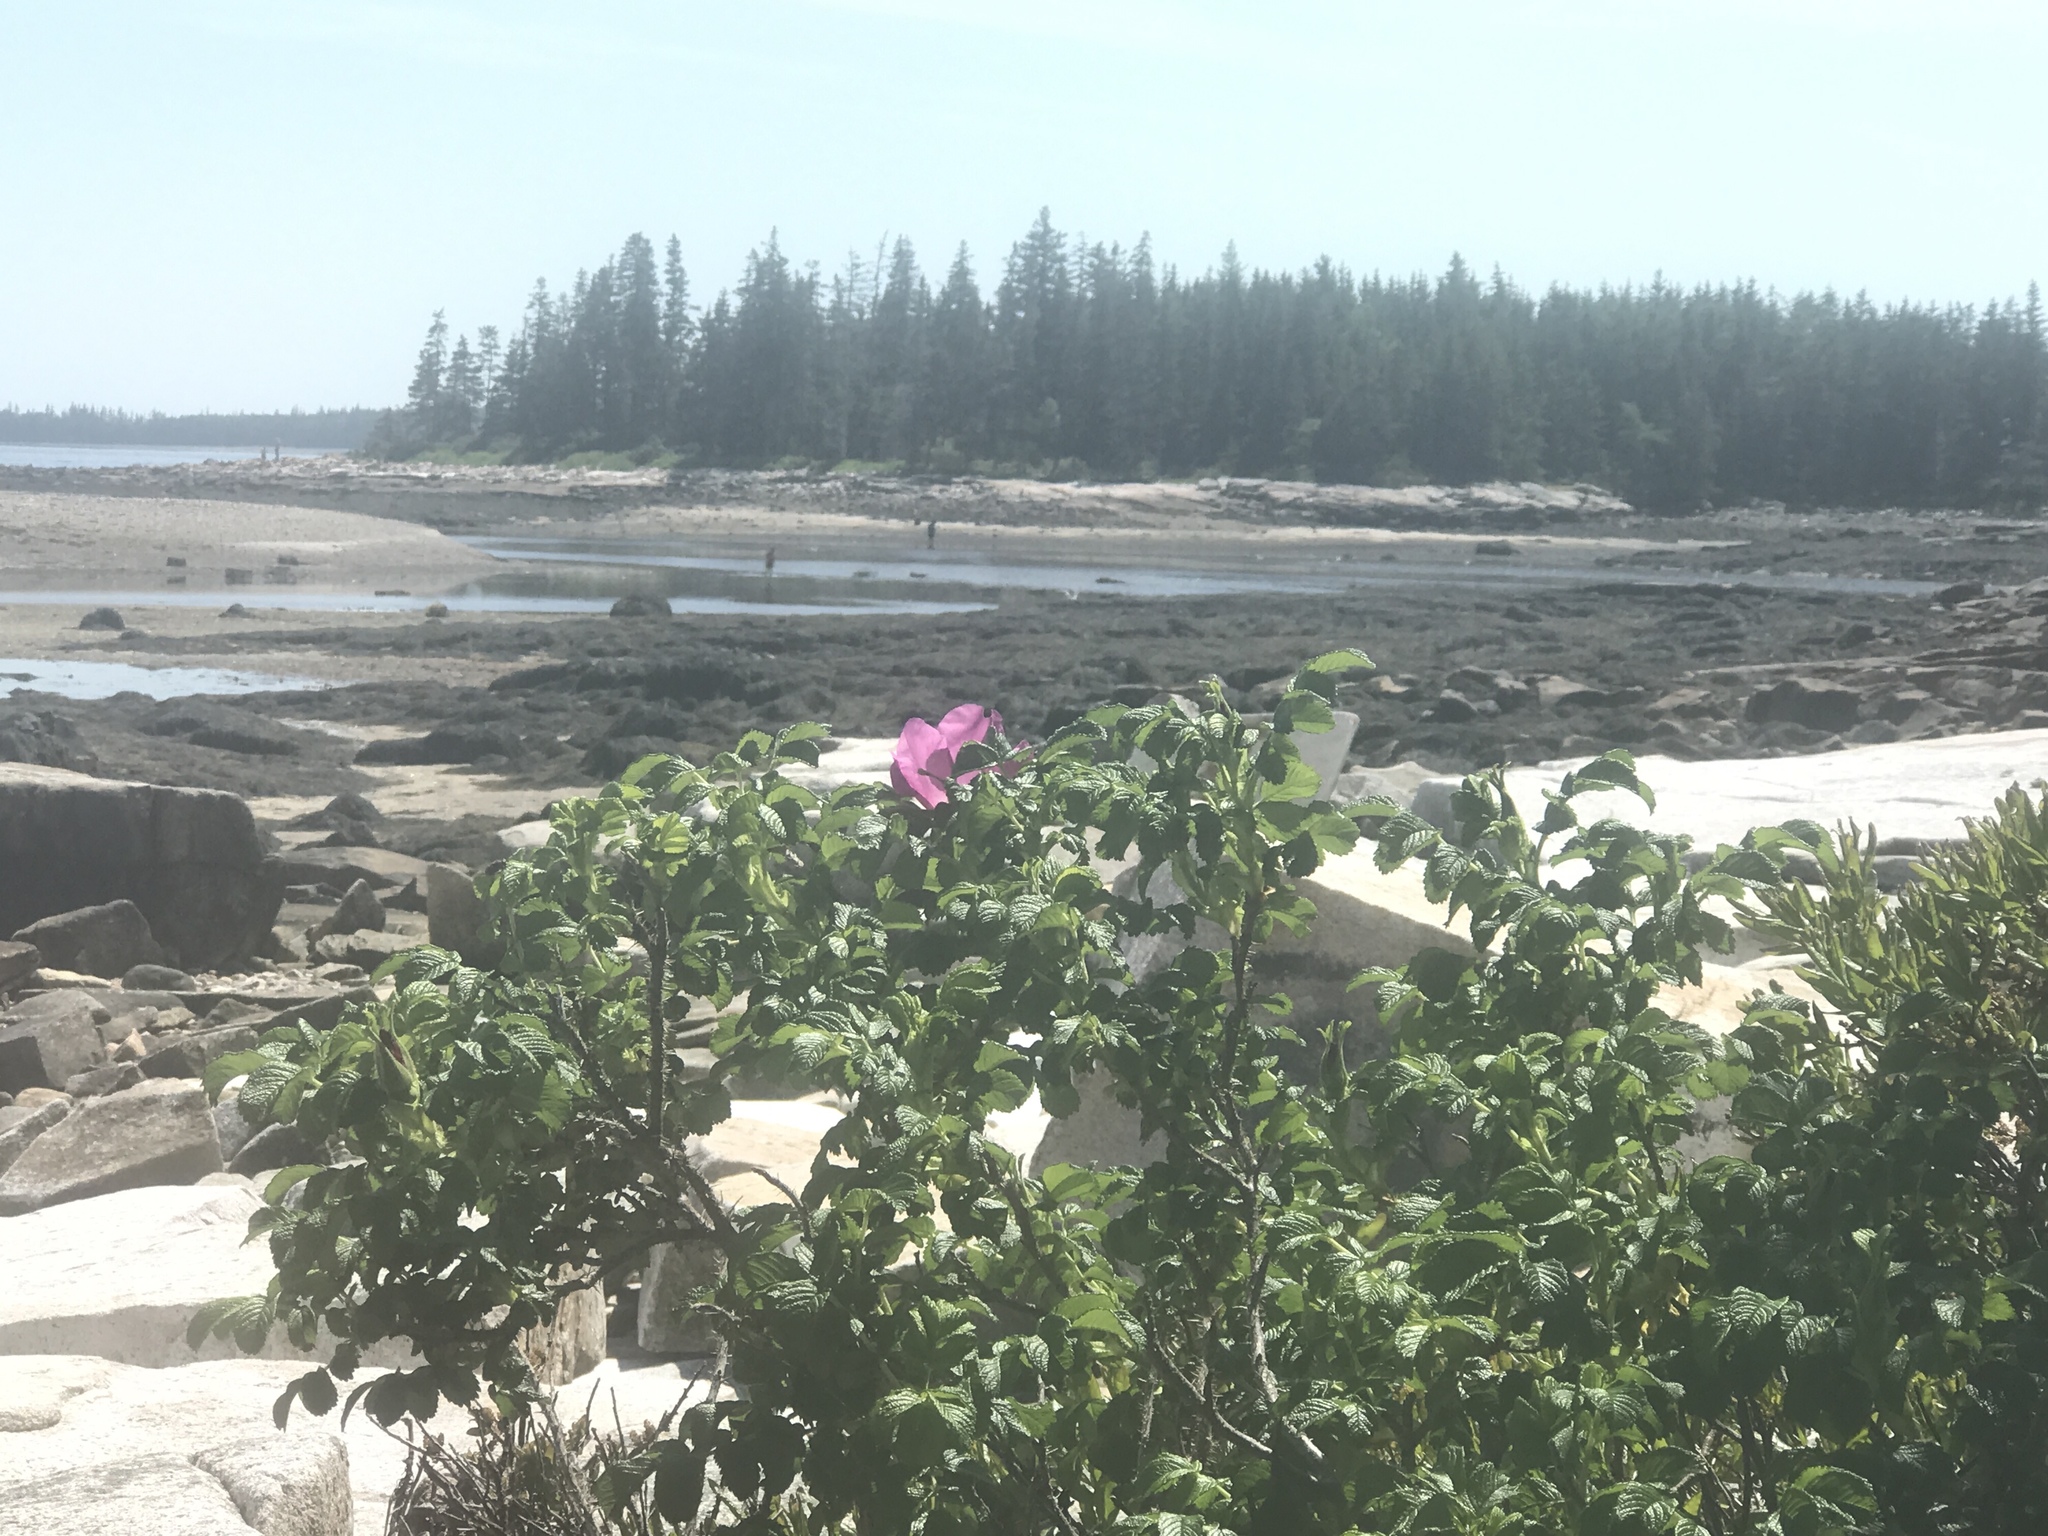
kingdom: Plantae
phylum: Tracheophyta
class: Magnoliopsida
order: Rosales
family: Rosaceae
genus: Rosa
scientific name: Rosa rugosa
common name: Japanese rose
